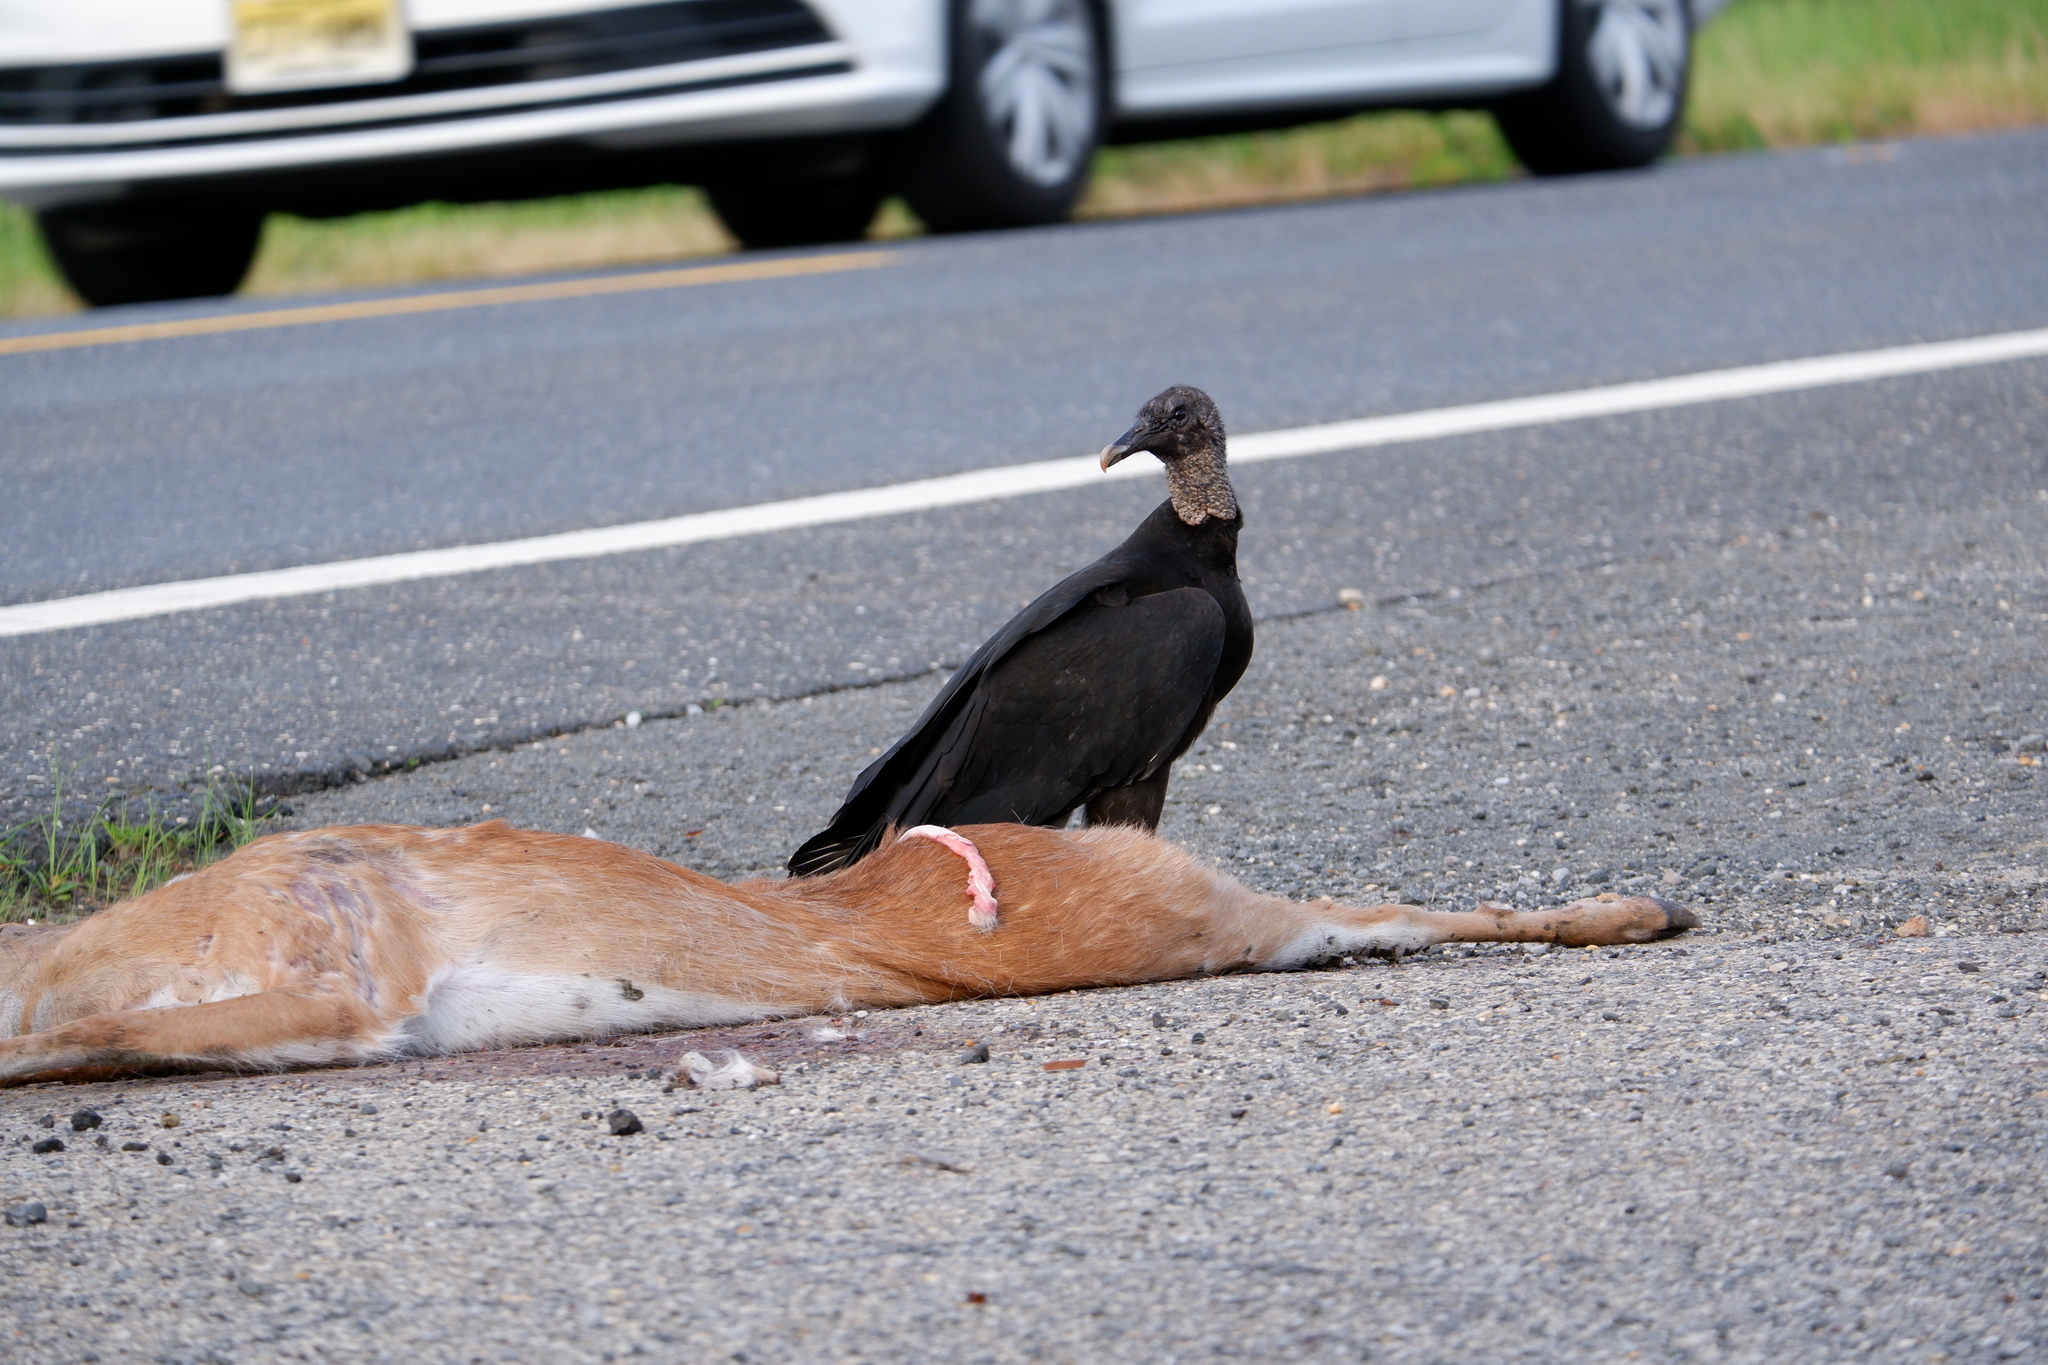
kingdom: Animalia
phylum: Chordata
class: Aves
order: Accipitriformes
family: Cathartidae
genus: Coragyps
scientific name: Coragyps atratus
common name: Black vulture
